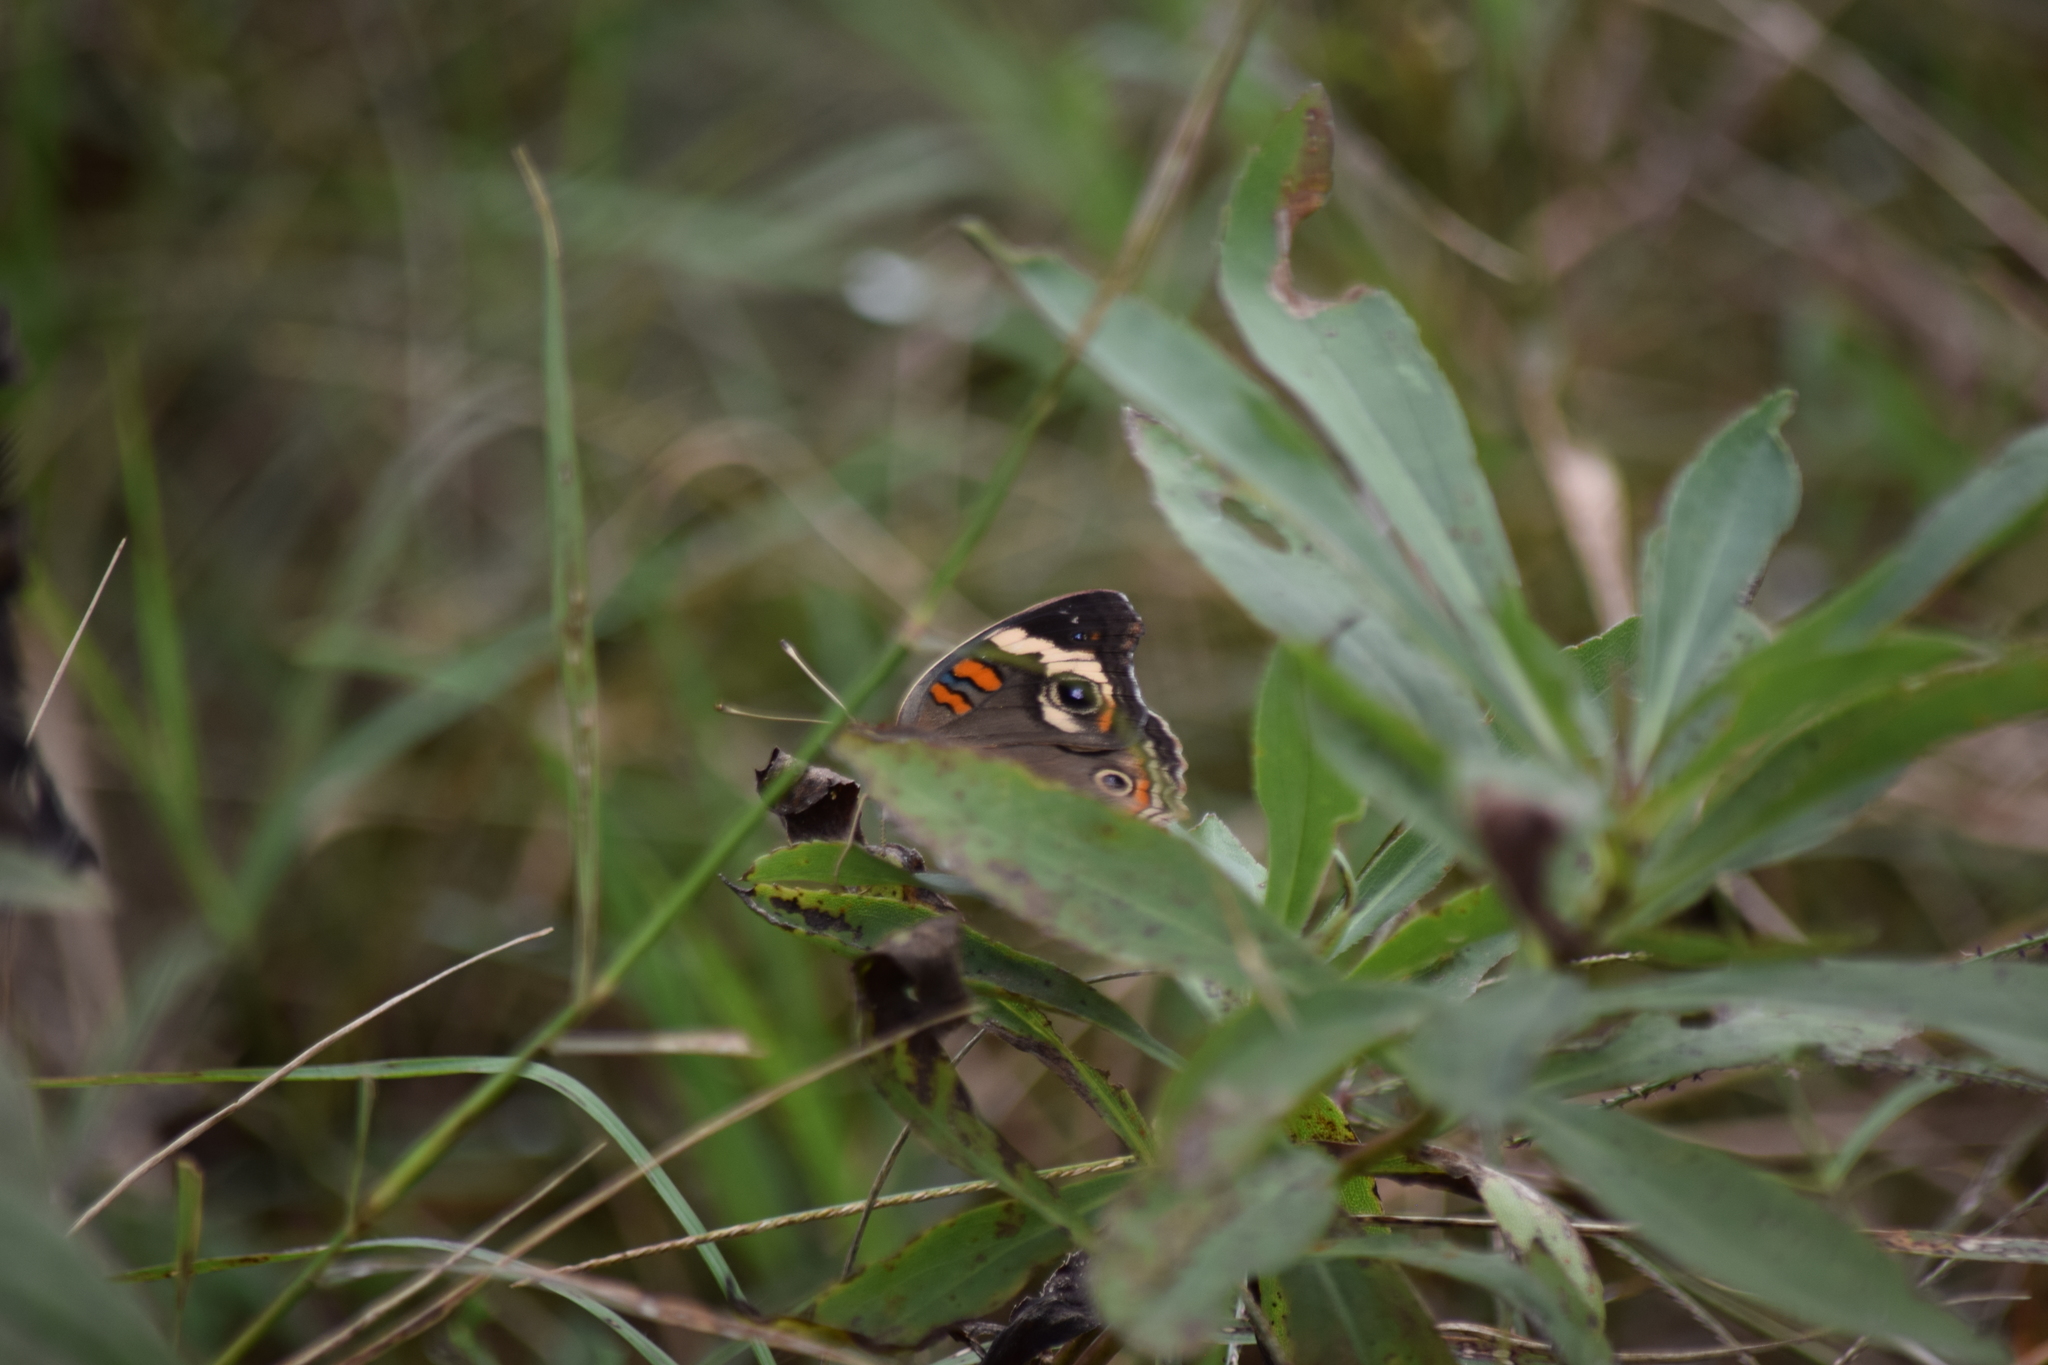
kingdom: Animalia
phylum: Arthropoda
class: Insecta
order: Lepidoptera
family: Nymphalidae
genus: Junonia
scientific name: Junonia coenia
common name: Common buckeye
